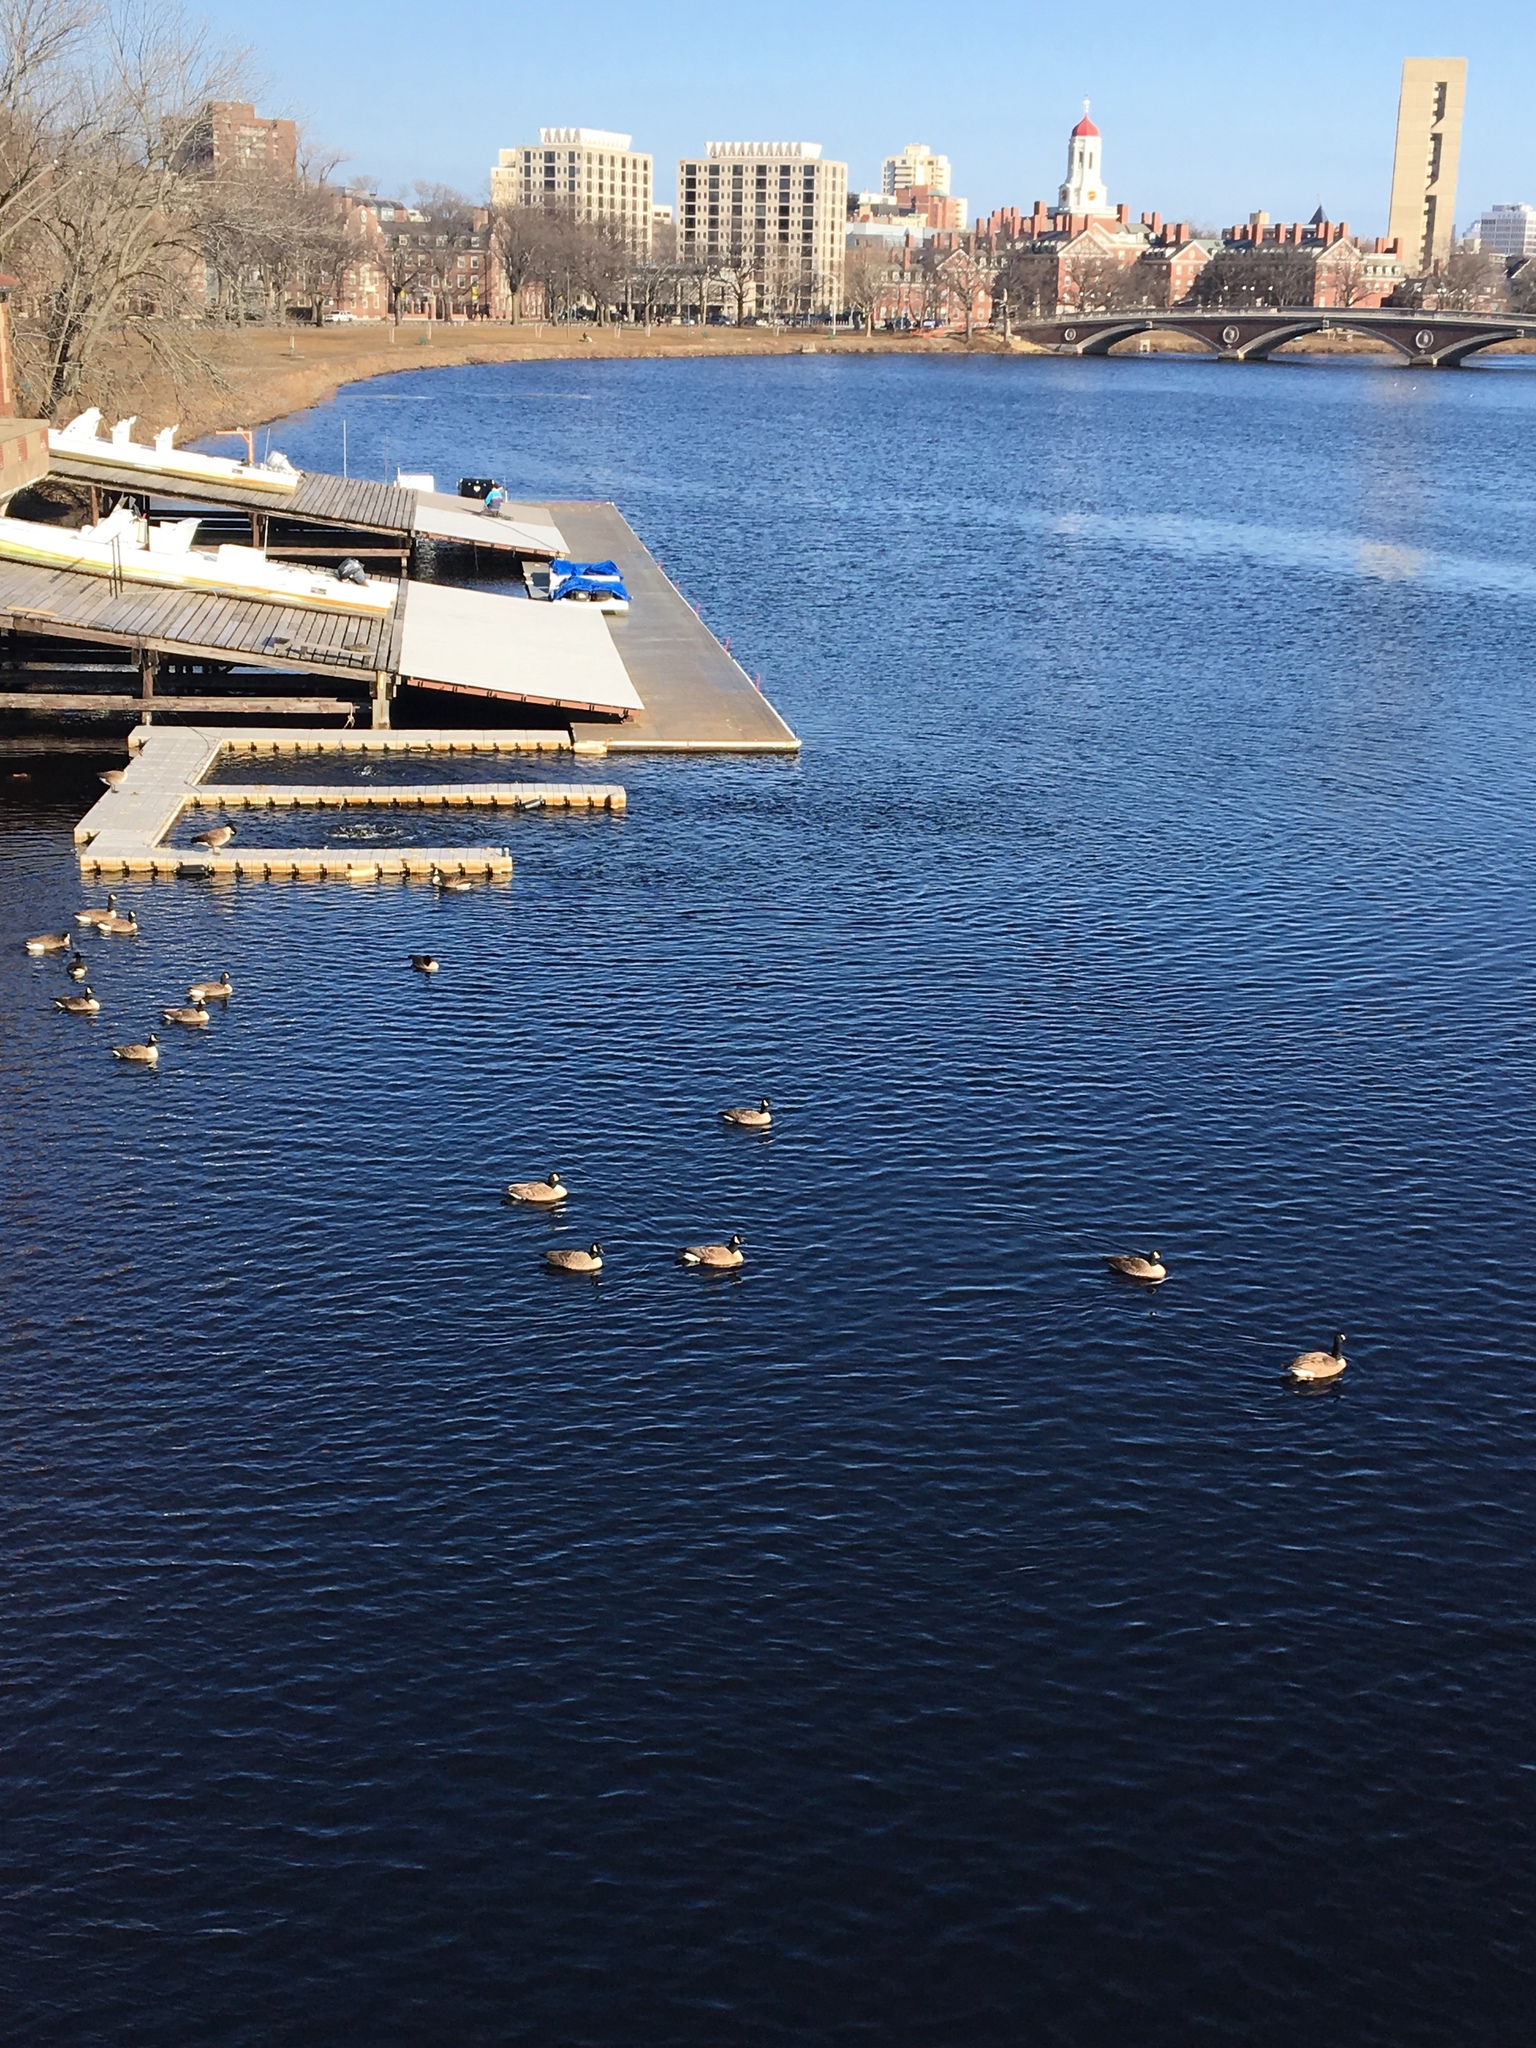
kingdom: Animalia
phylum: Chordata
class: Aves
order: Anseriformes
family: Anatidae
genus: Branta
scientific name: Branta canadensis
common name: Canada goose
